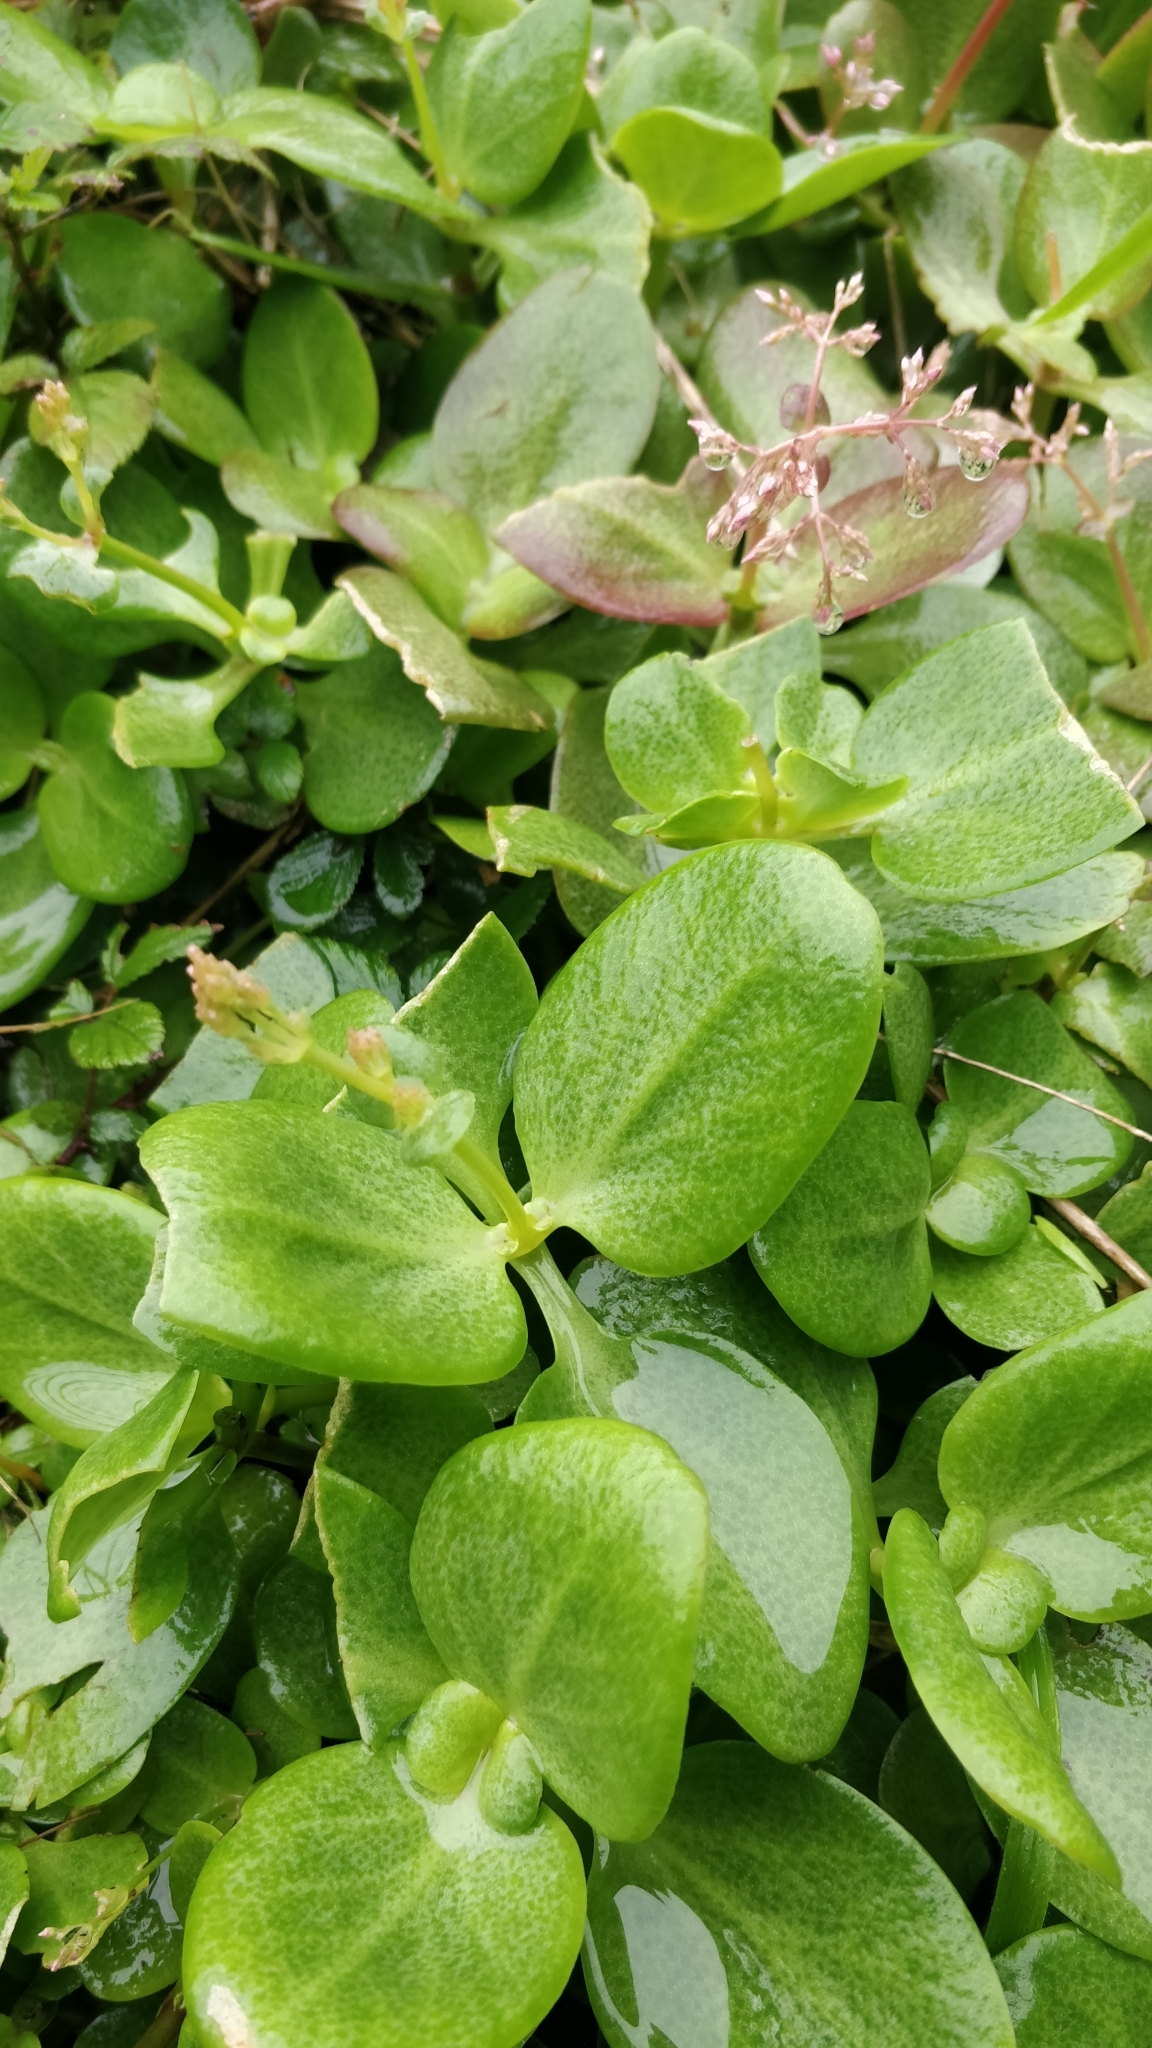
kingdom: Plantae
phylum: Tracheophyta
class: Magnoliopsida
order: Saxifragales
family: Crassulaceae
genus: Crassula
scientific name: Crassula multicava
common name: Cape province pygmyweed
